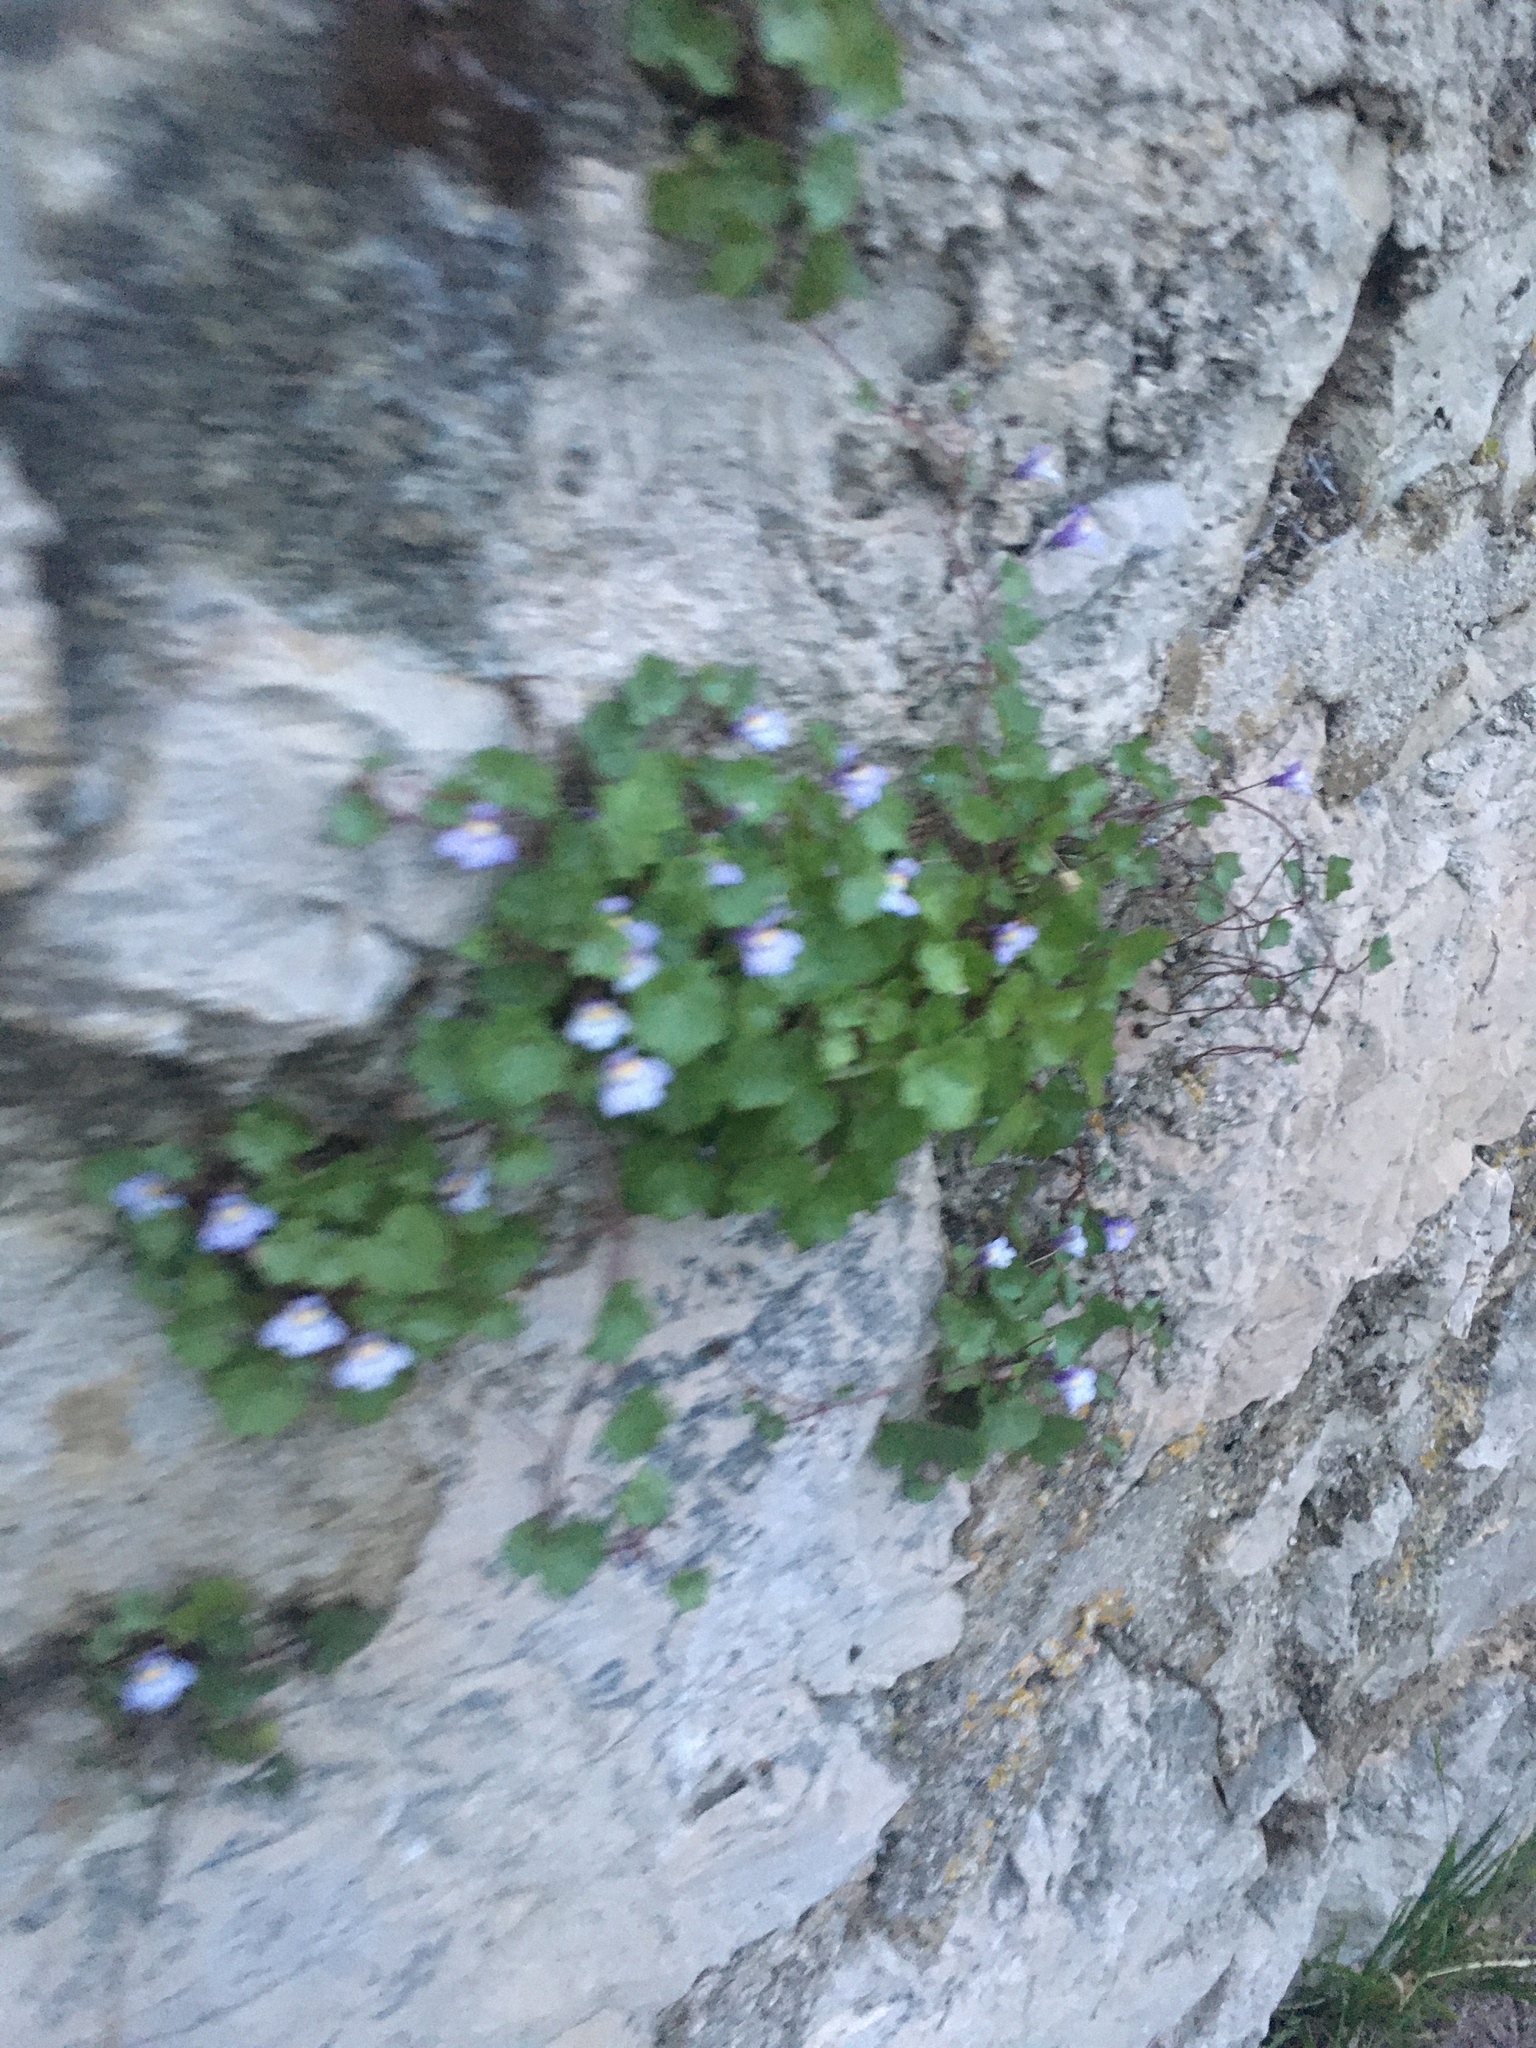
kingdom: Plantae
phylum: Tracheophyta
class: Magnoliopsida
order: Lamiales
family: Plantaginaceae
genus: Cymbalaria
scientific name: Cymbalaria muralis
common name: Ivy-leaved toadflax
